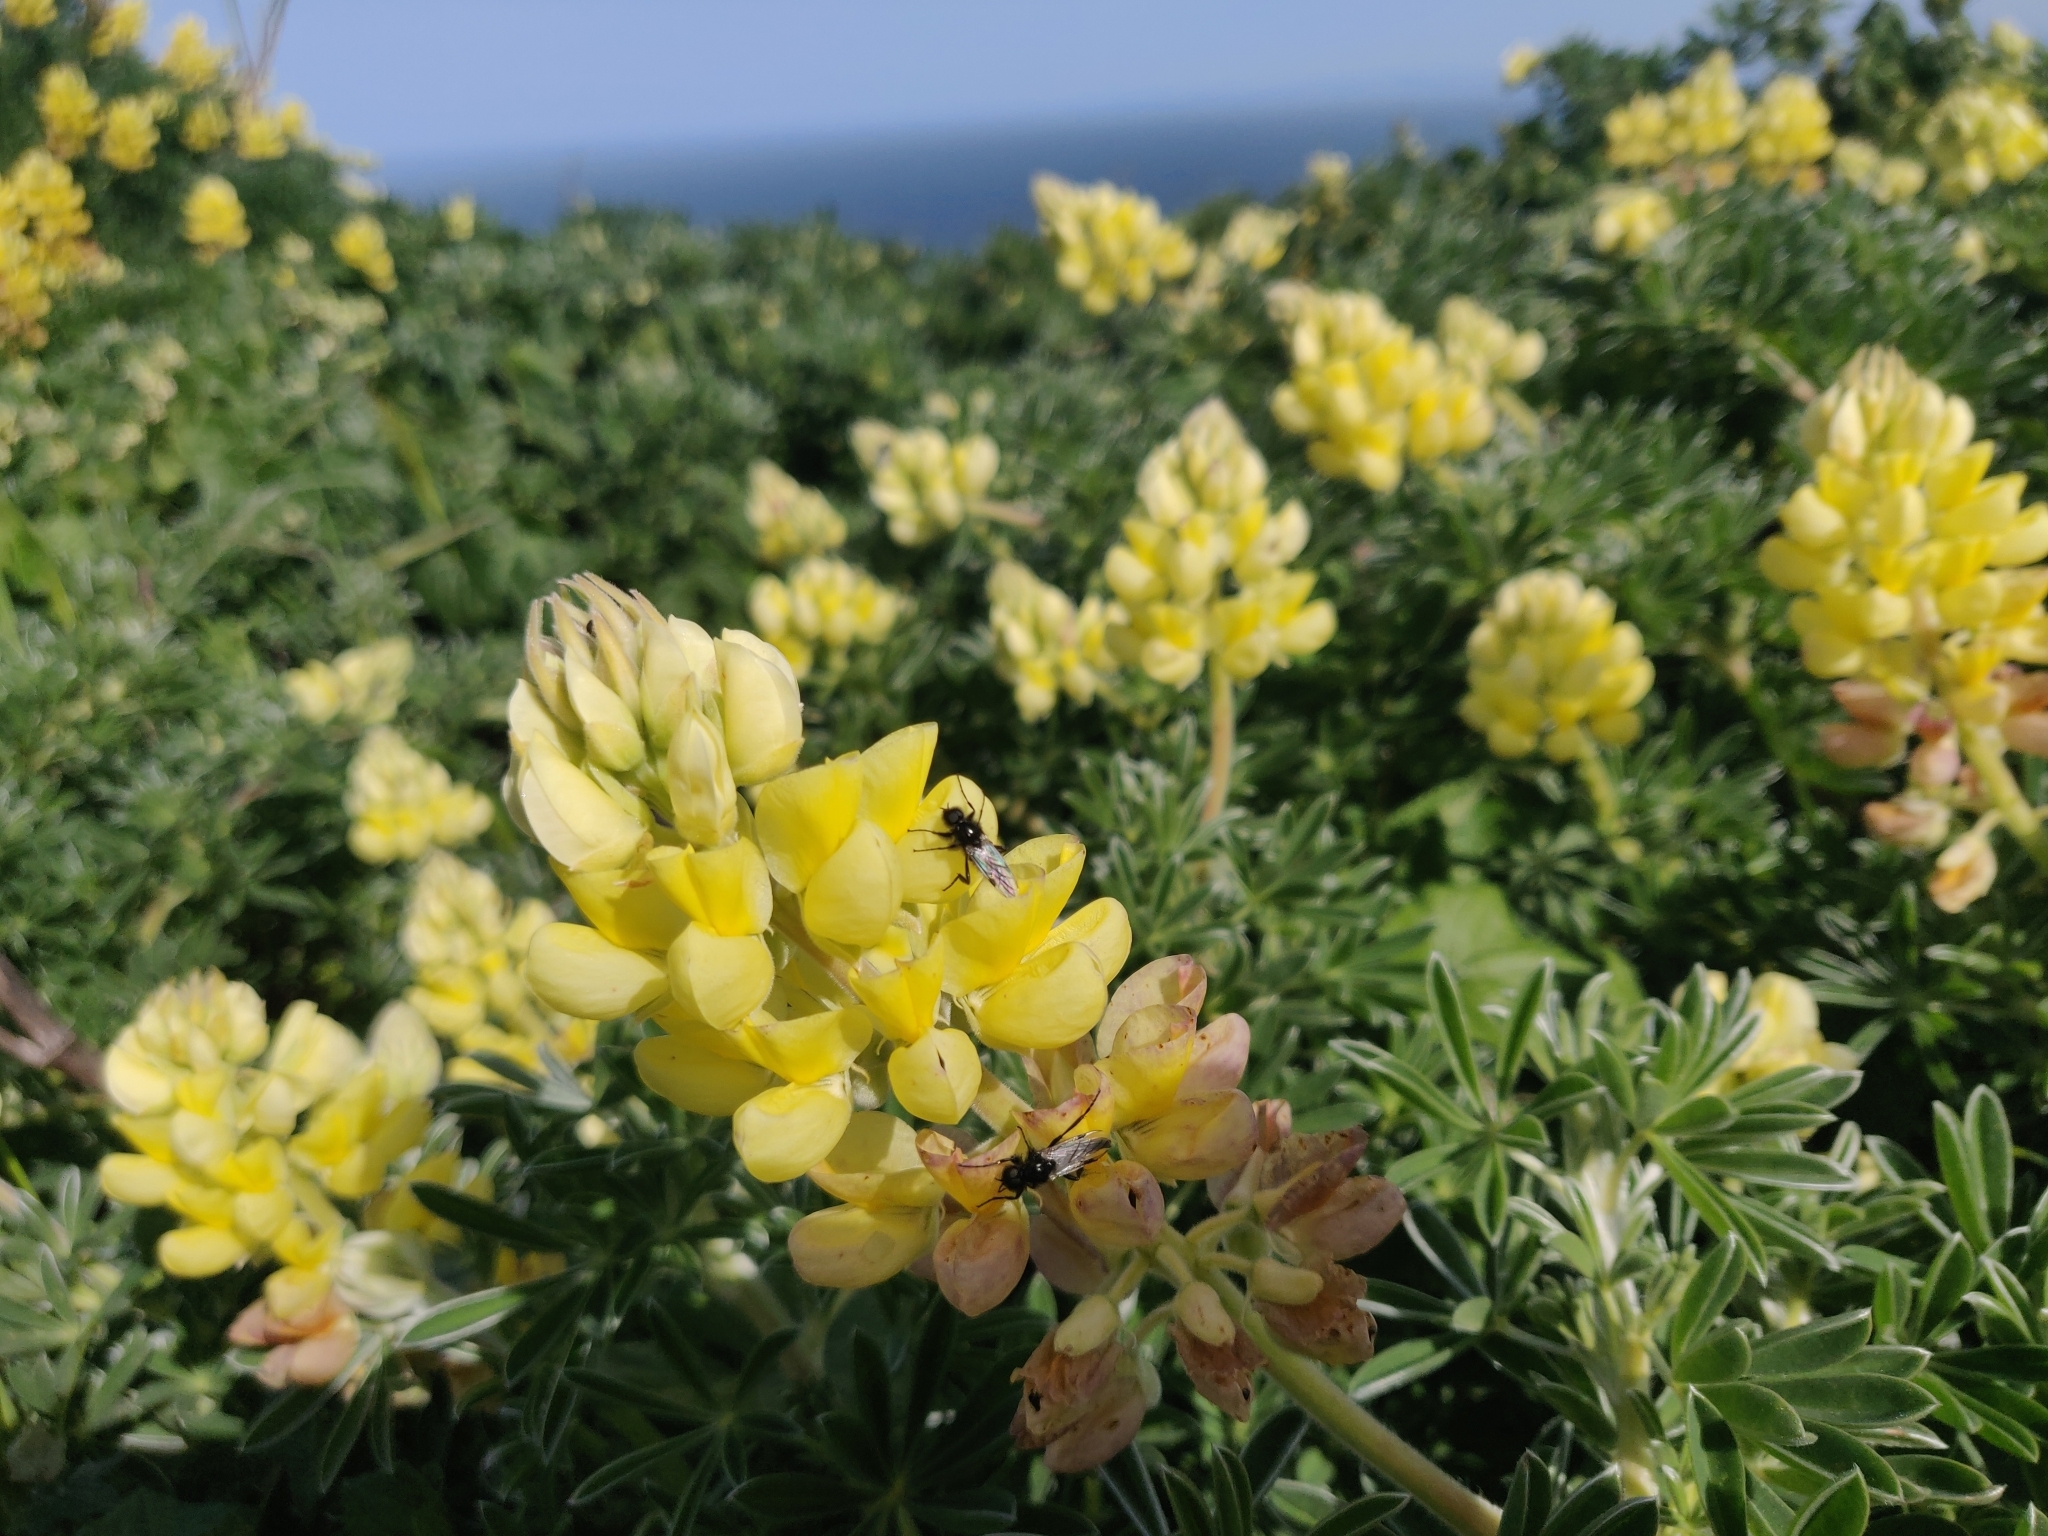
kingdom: Plantae
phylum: Tracheophyta
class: Magnoliopsida
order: Fabales
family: Fabaceae
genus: Lupinus
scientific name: Lupinus arboreus
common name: Yellow bush lupine
